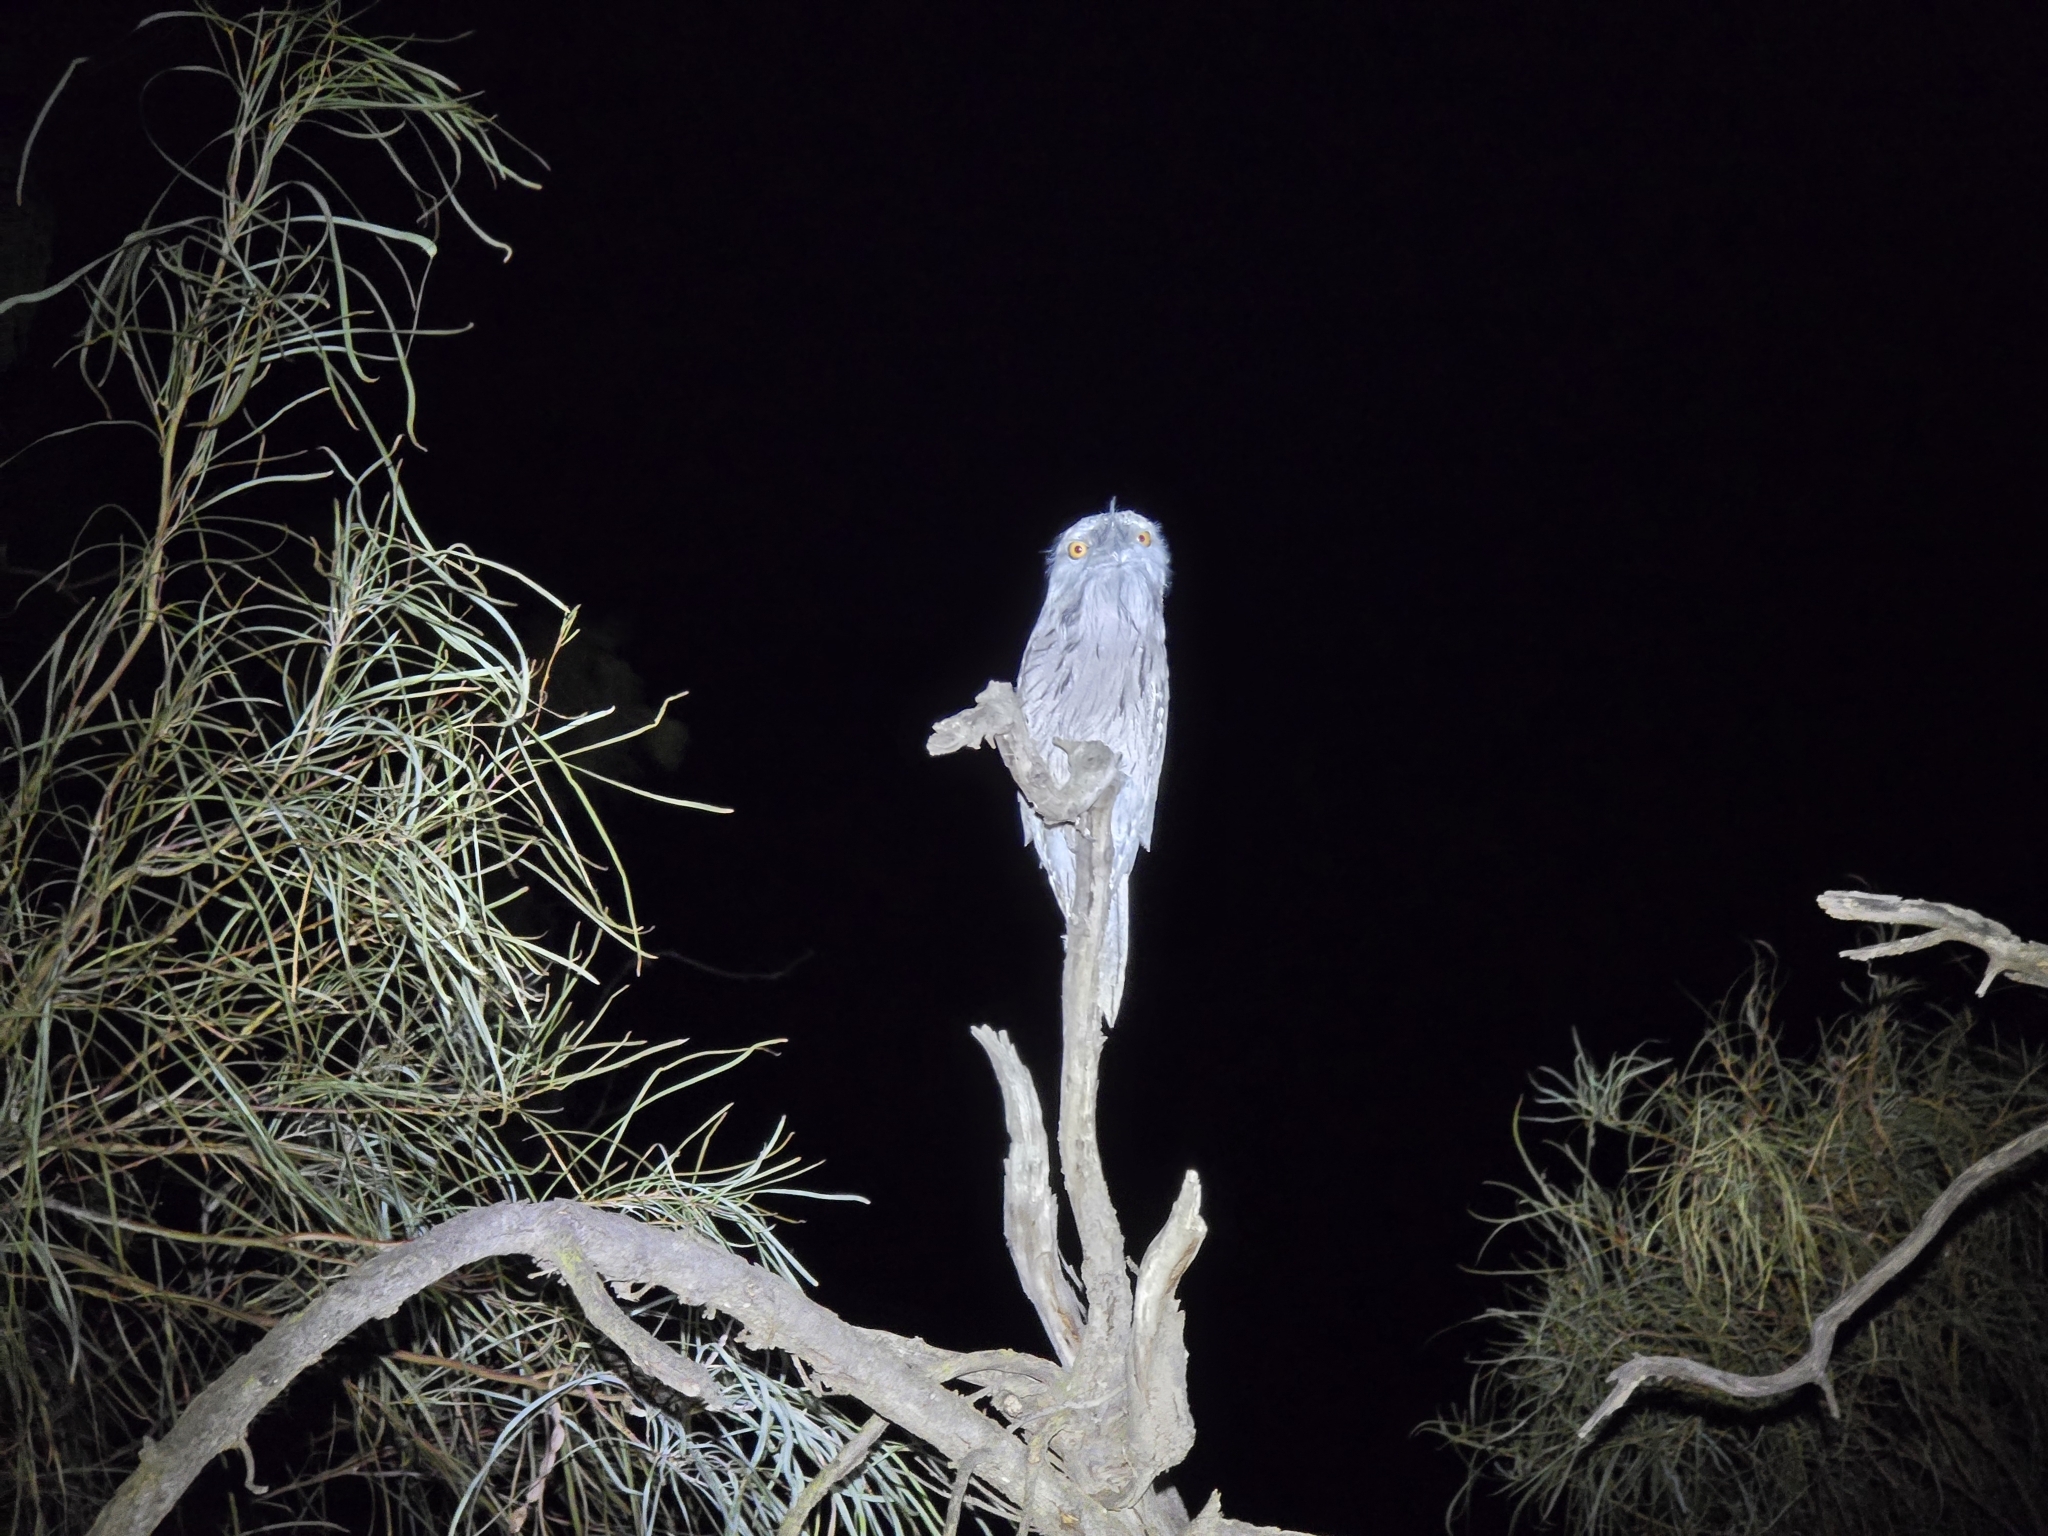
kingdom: Animalia
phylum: Chordata
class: Aves
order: Caprimulgiformes
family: Podargidae
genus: Podargus
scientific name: Podargus strigoides
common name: Tawny frogmouth
